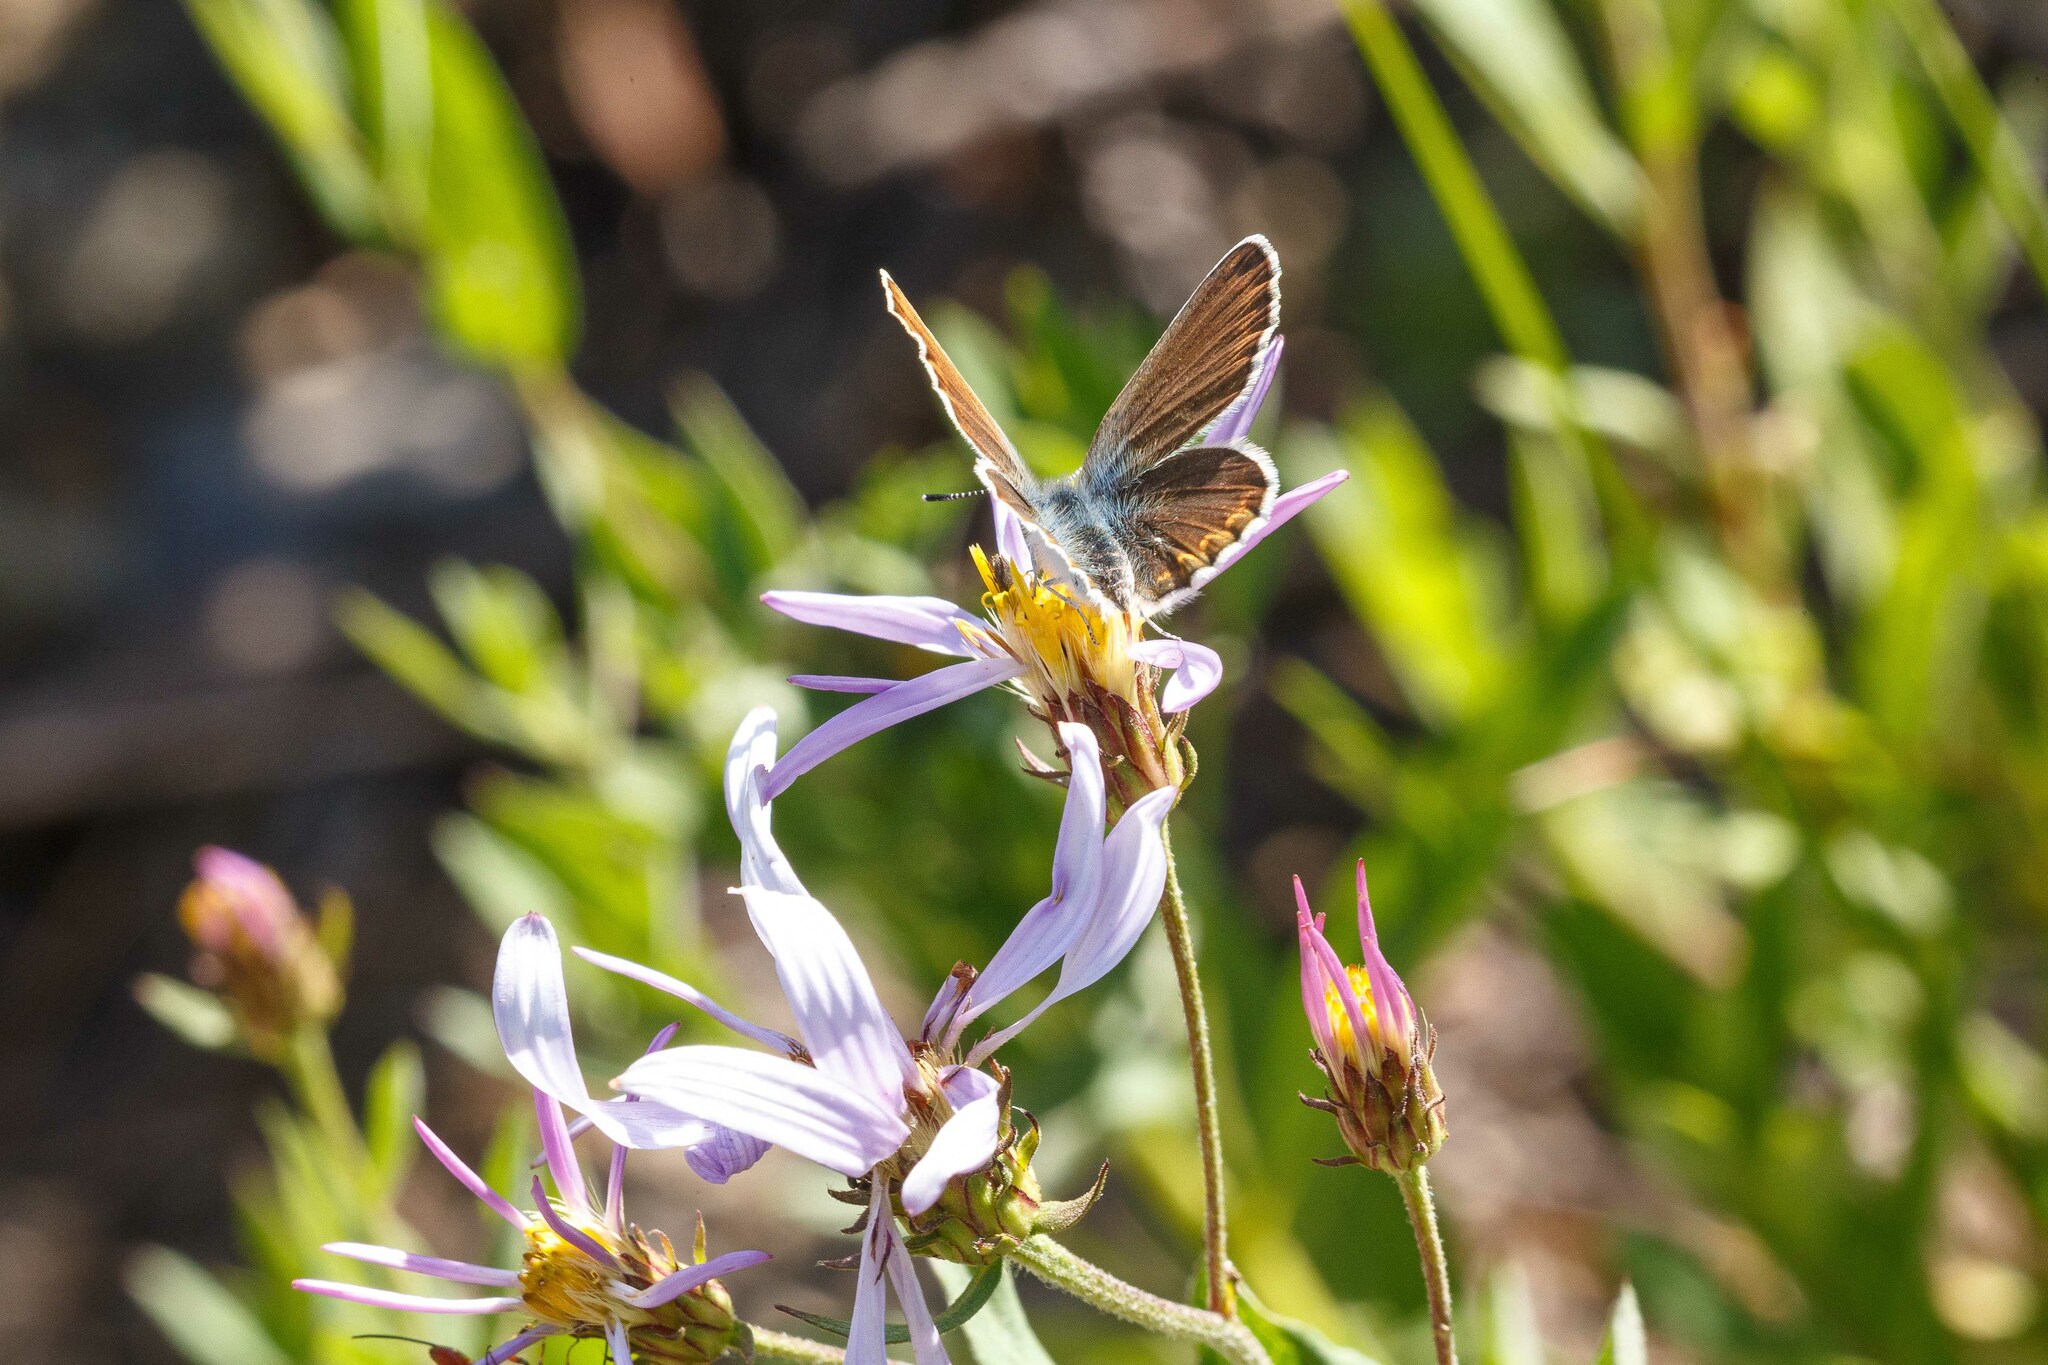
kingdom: Animalia
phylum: Arthropoda
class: Insecta
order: Lepidoptera
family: Lycaenidae
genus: Lycaeides
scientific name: Lycaeides anna
